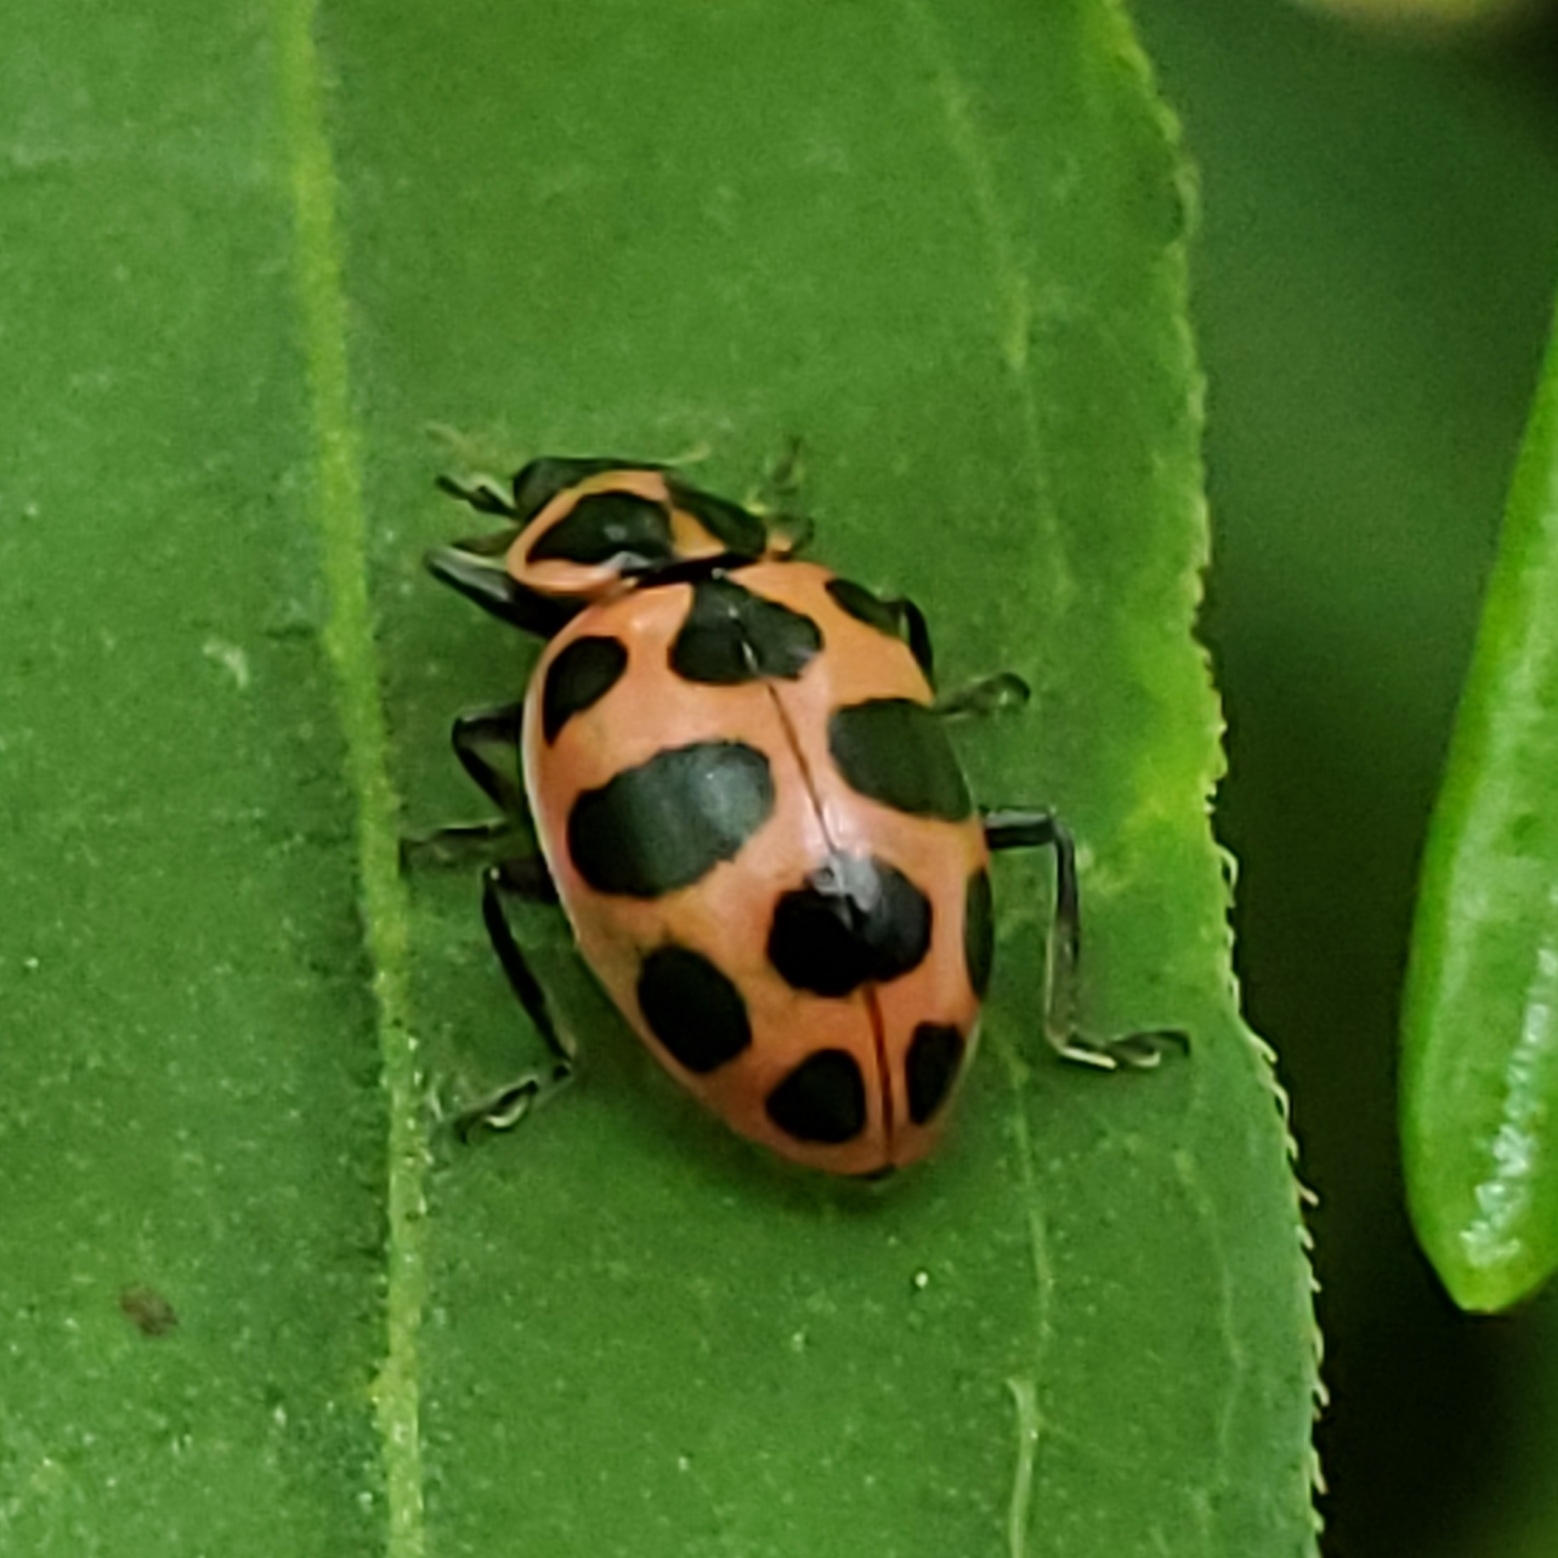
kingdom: Animalia
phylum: Arthropoda
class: Insecta
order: Coleoptera
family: Coccinellidae
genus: Coleomegilla
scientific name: Coleomegilla maculata
